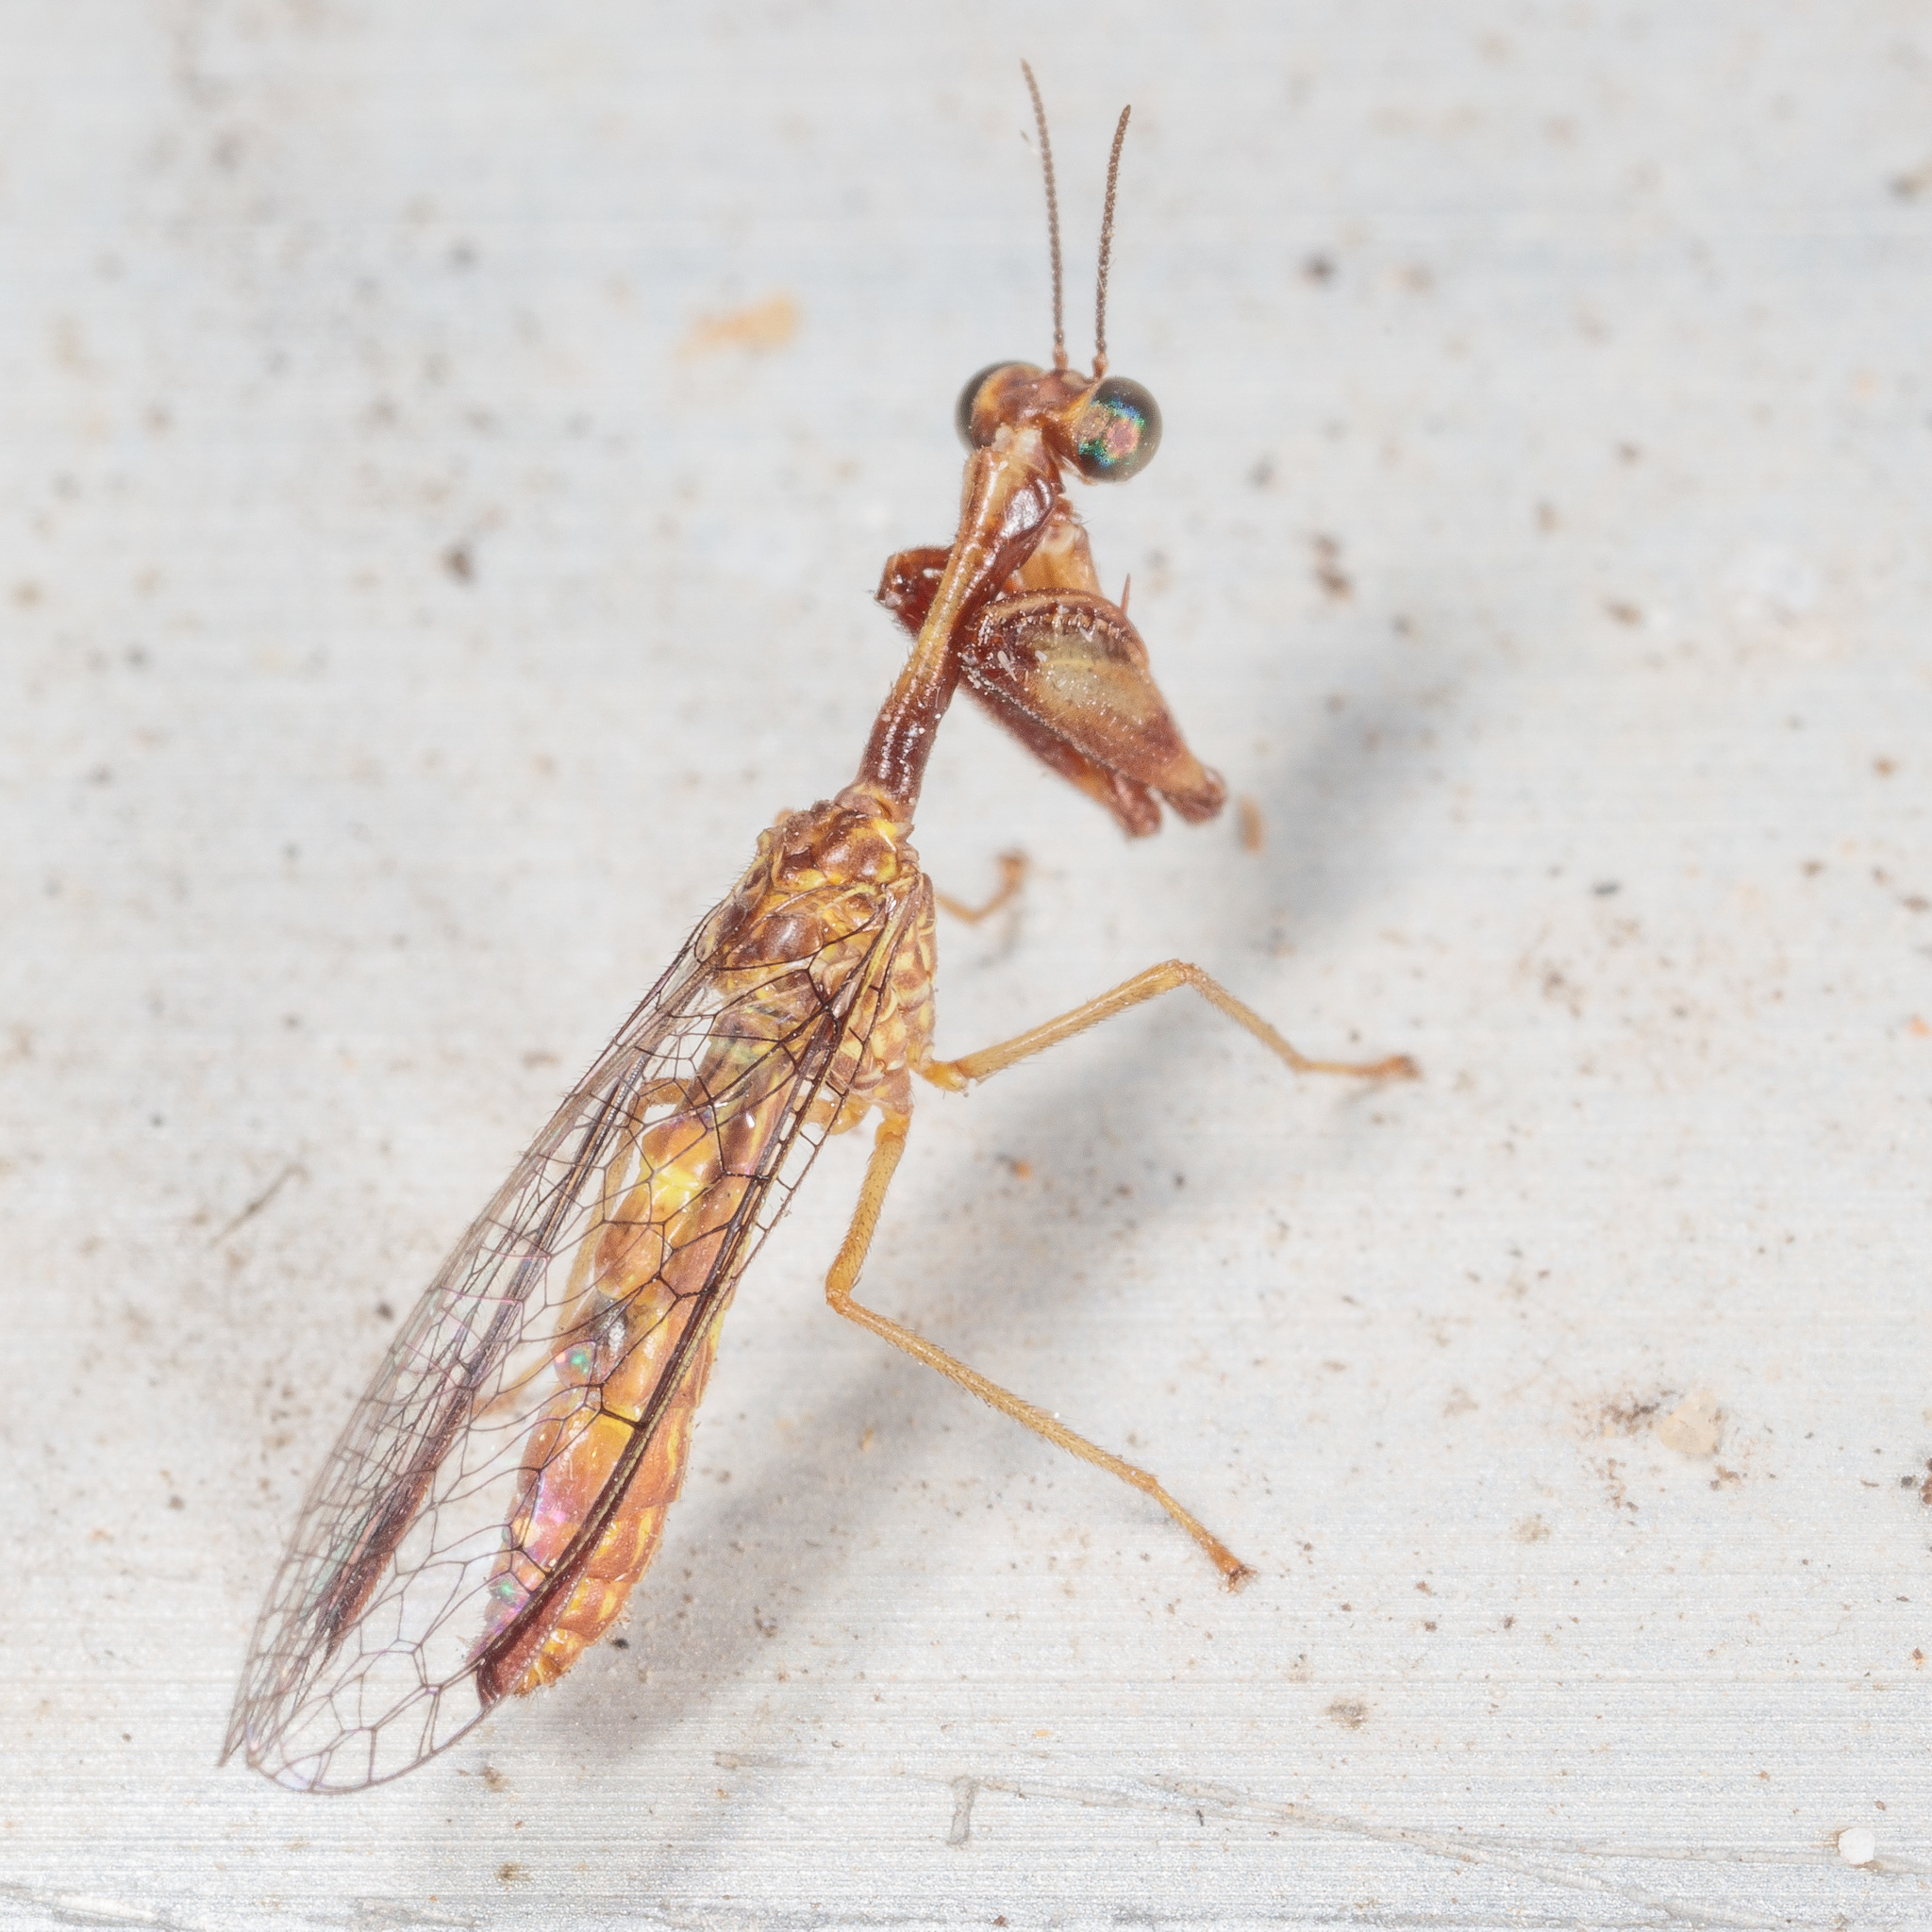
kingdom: Animalia
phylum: Arthropoda
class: Insecta
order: Neuroptera
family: Mantispidae
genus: Leptomantispa
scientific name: Leptomantispa pulchella
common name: Stevens's mantidfly
